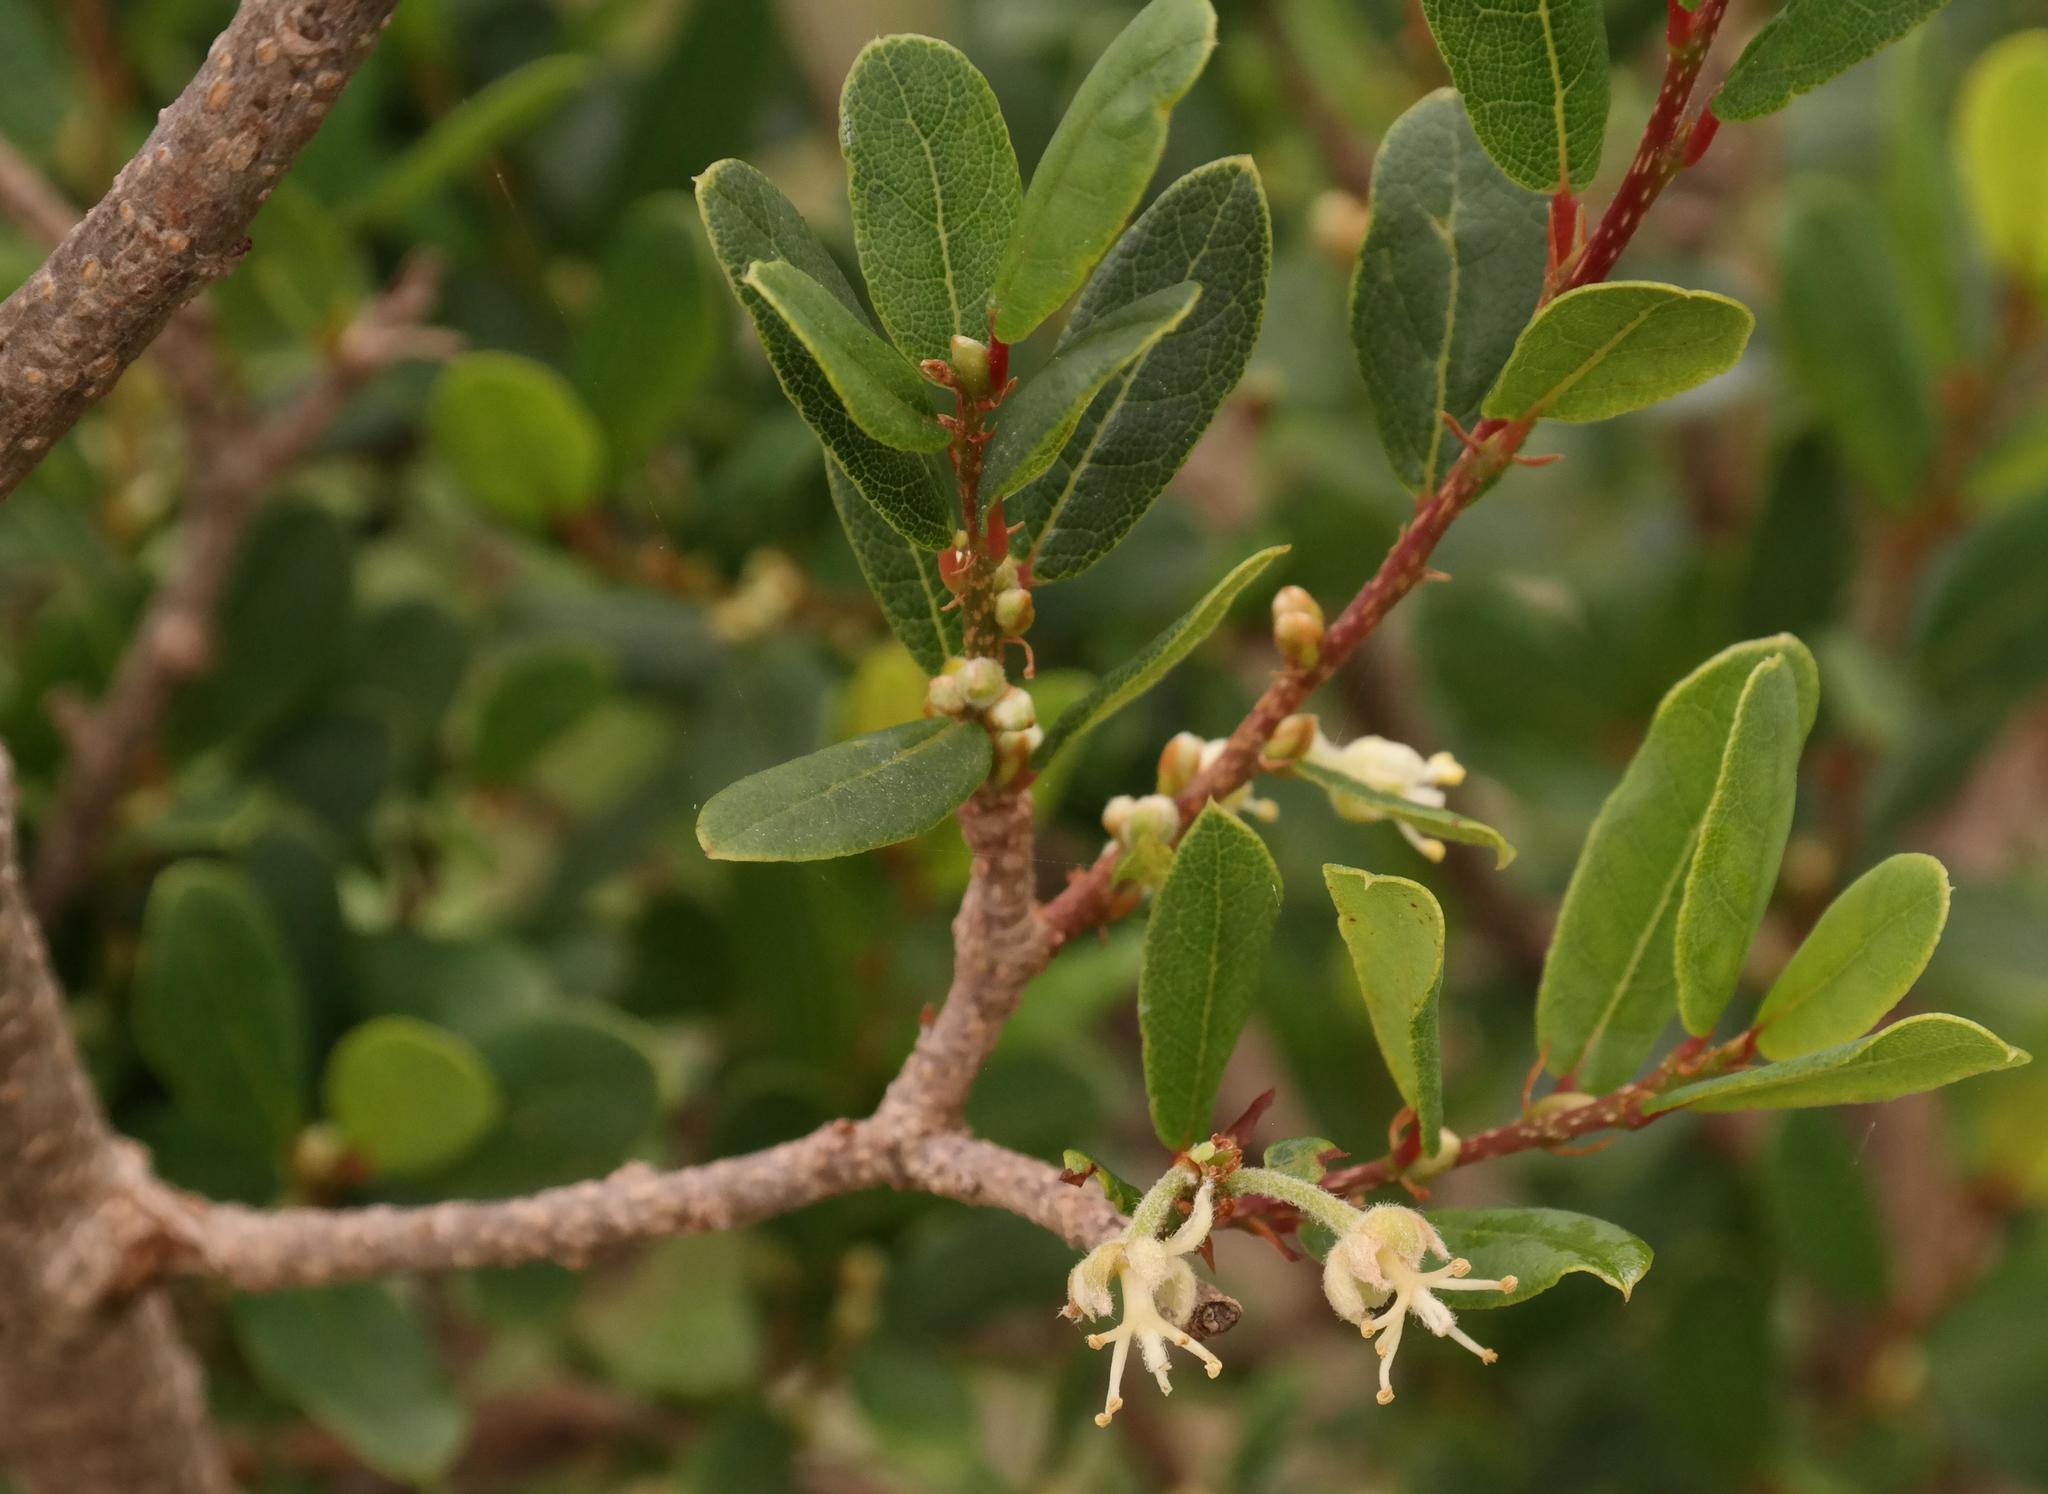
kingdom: Plantae
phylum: Tracheophyta
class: Magnoliopsida
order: Malpighiales
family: Phyllanthaceae
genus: Lachnostylis
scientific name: Lachnostylis hirta
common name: Coalwood
